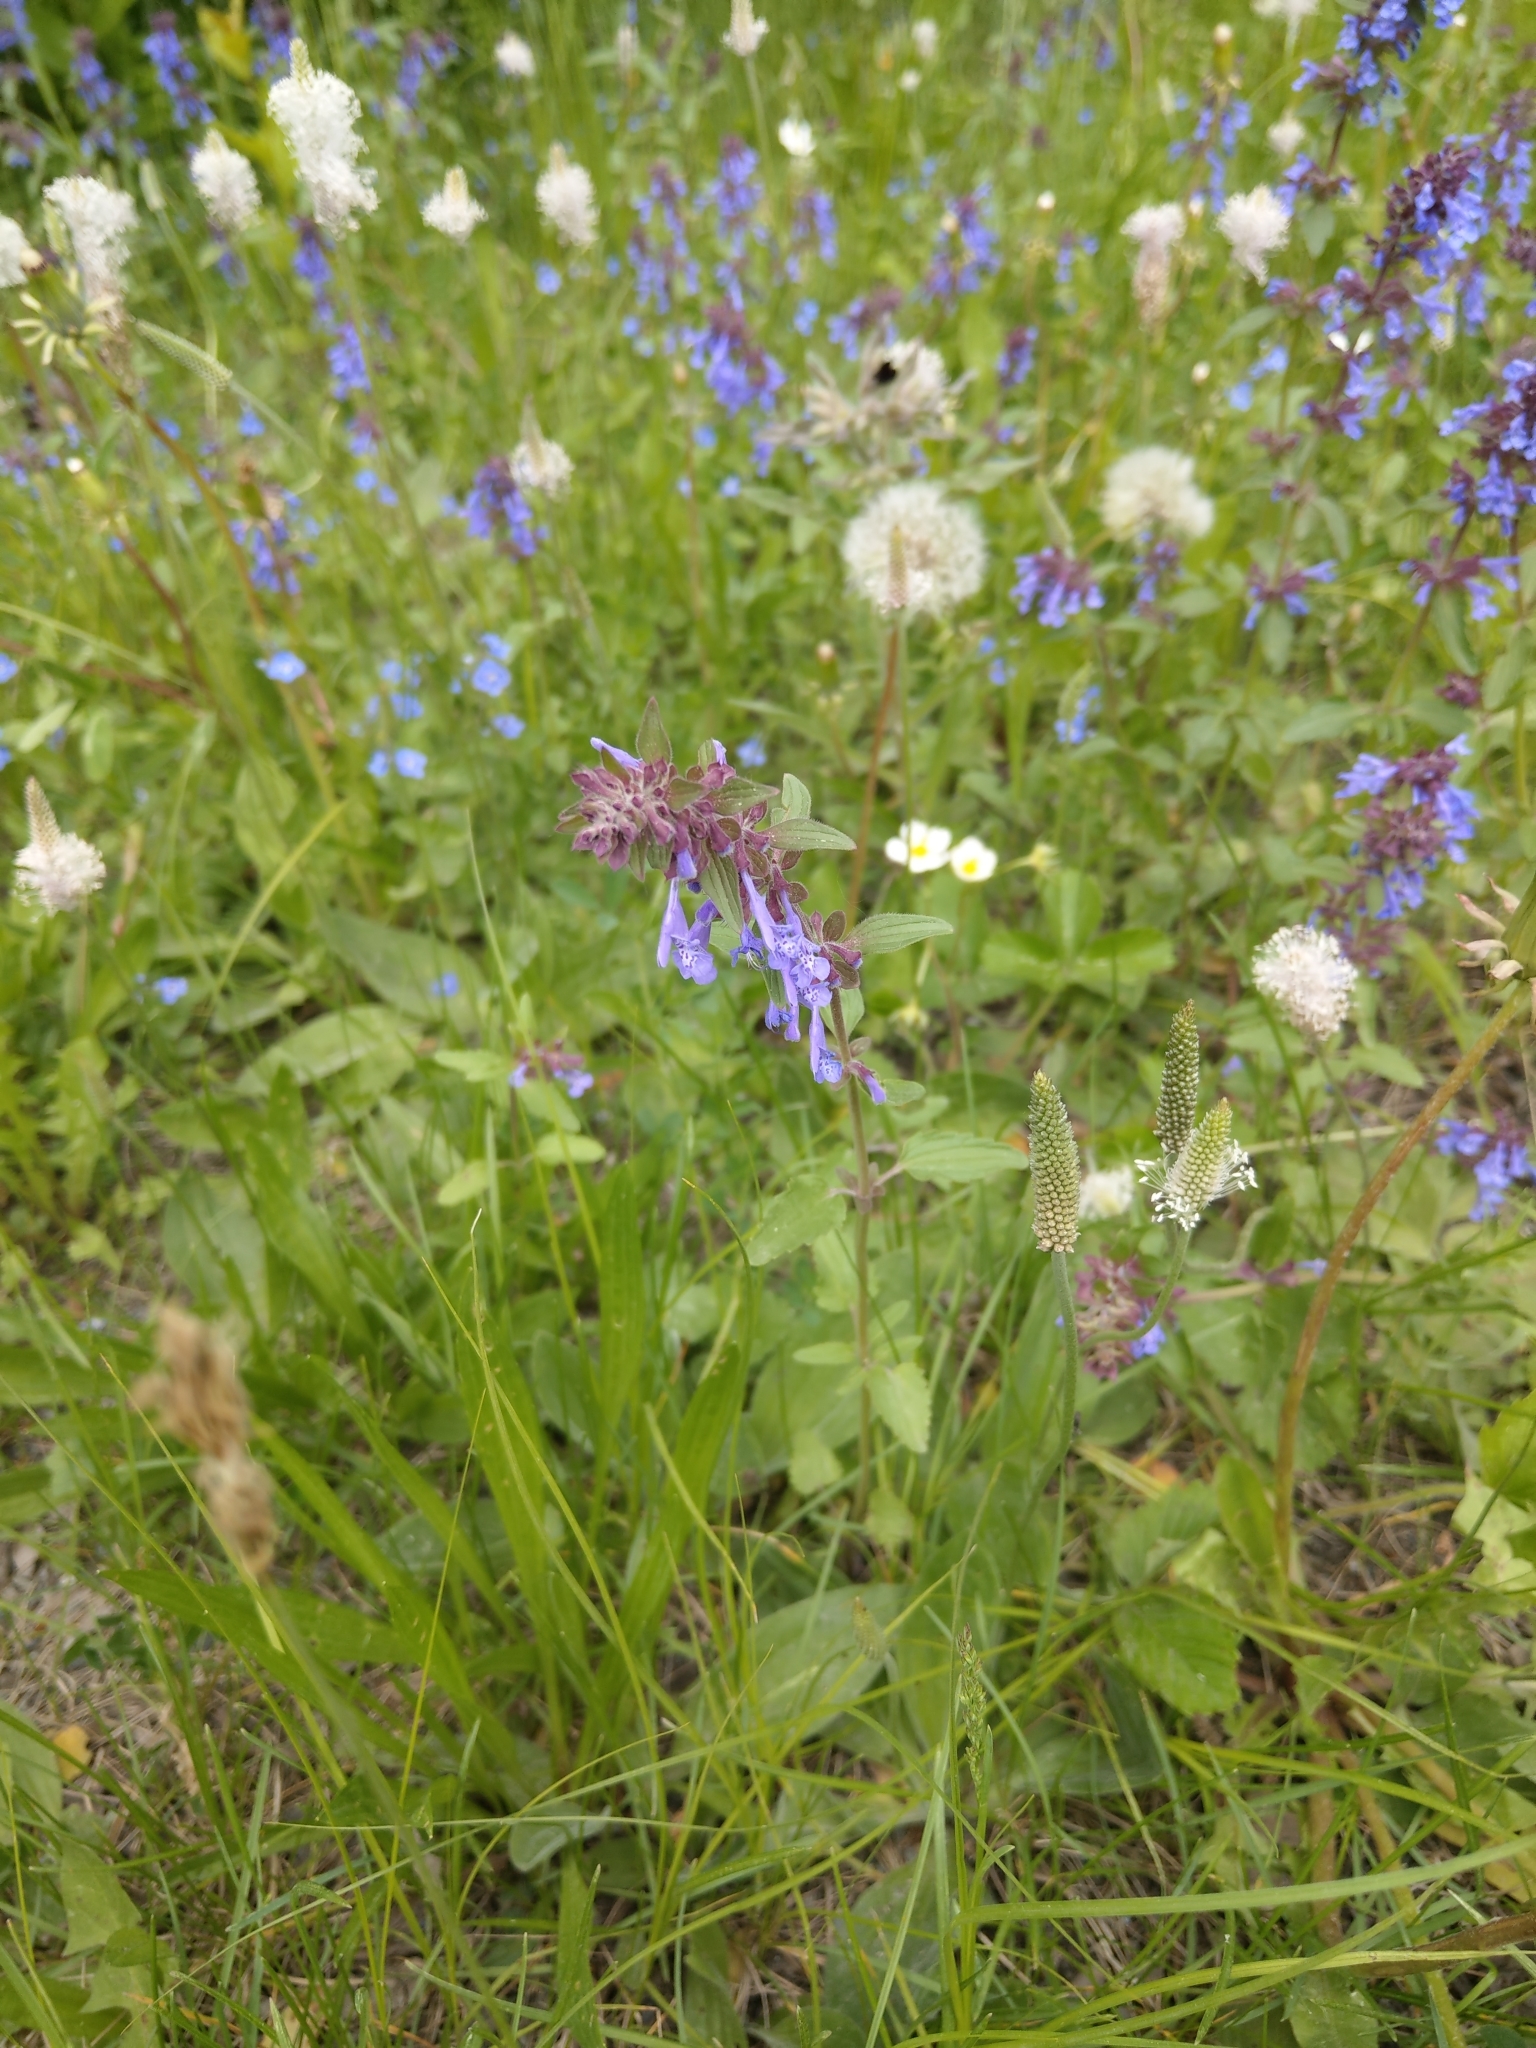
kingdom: Plantae
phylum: Tracheophyta
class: Magnoliopsida
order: Lamiales
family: Lamiaceae
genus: Dracocephalum
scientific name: Dracocephalum nutans
